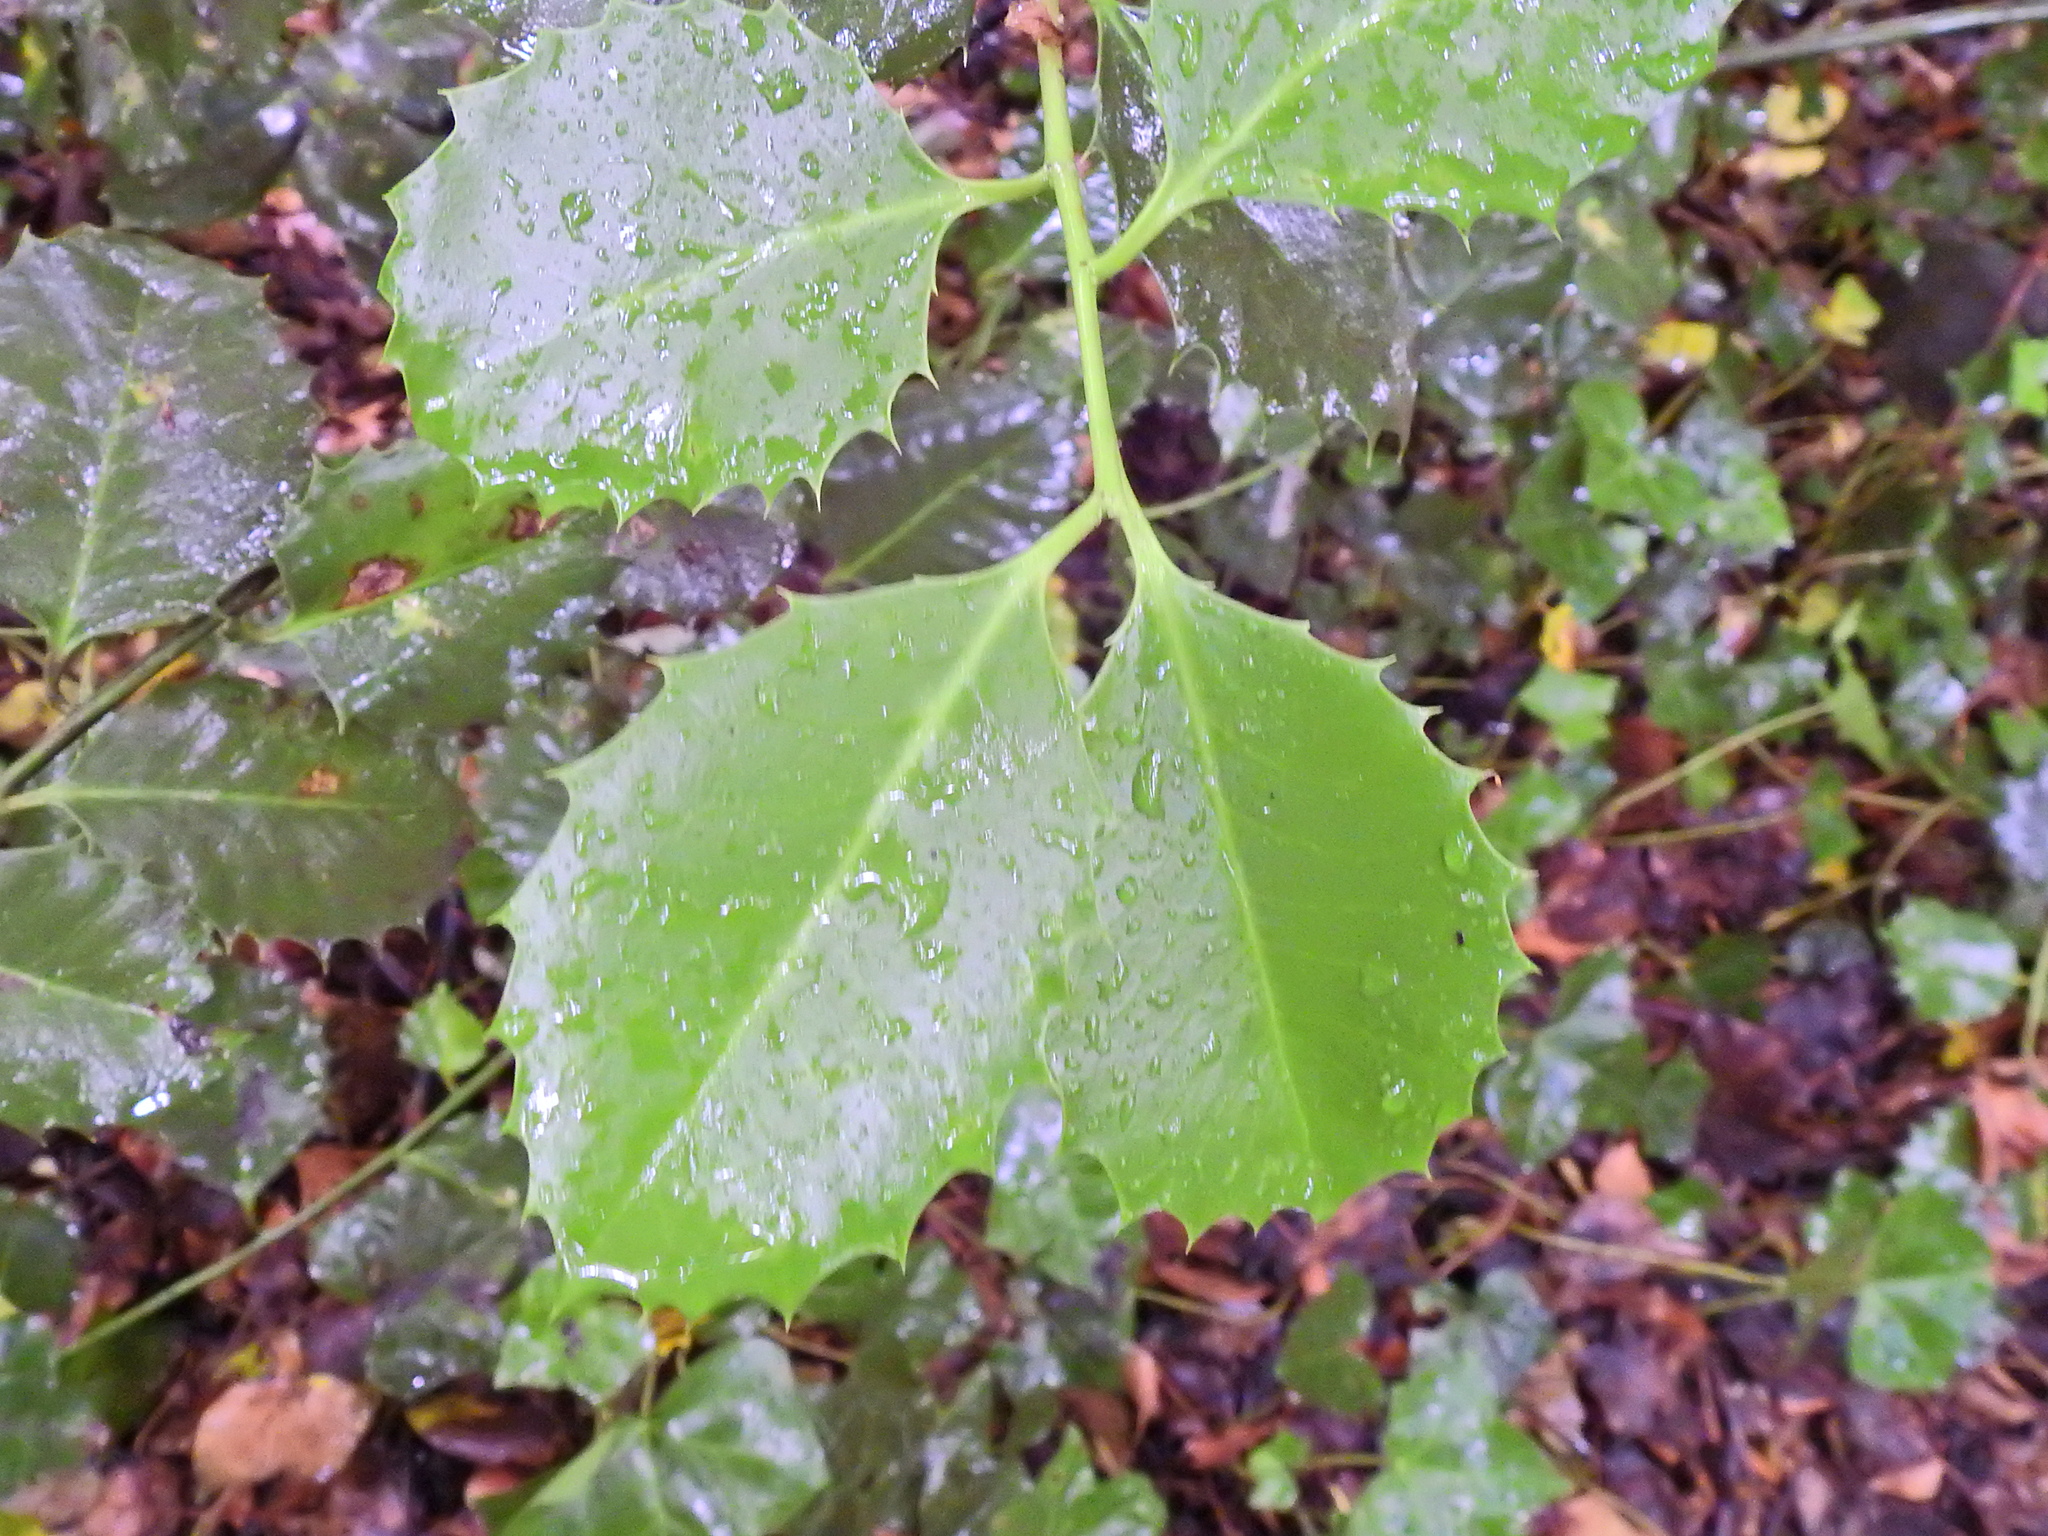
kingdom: Plantae
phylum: Tracheophyta
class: Magnoliopsida
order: Aquifoliales
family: Aquifoliaceae
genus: Ilex
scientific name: Ilex aquifolium
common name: English holly
